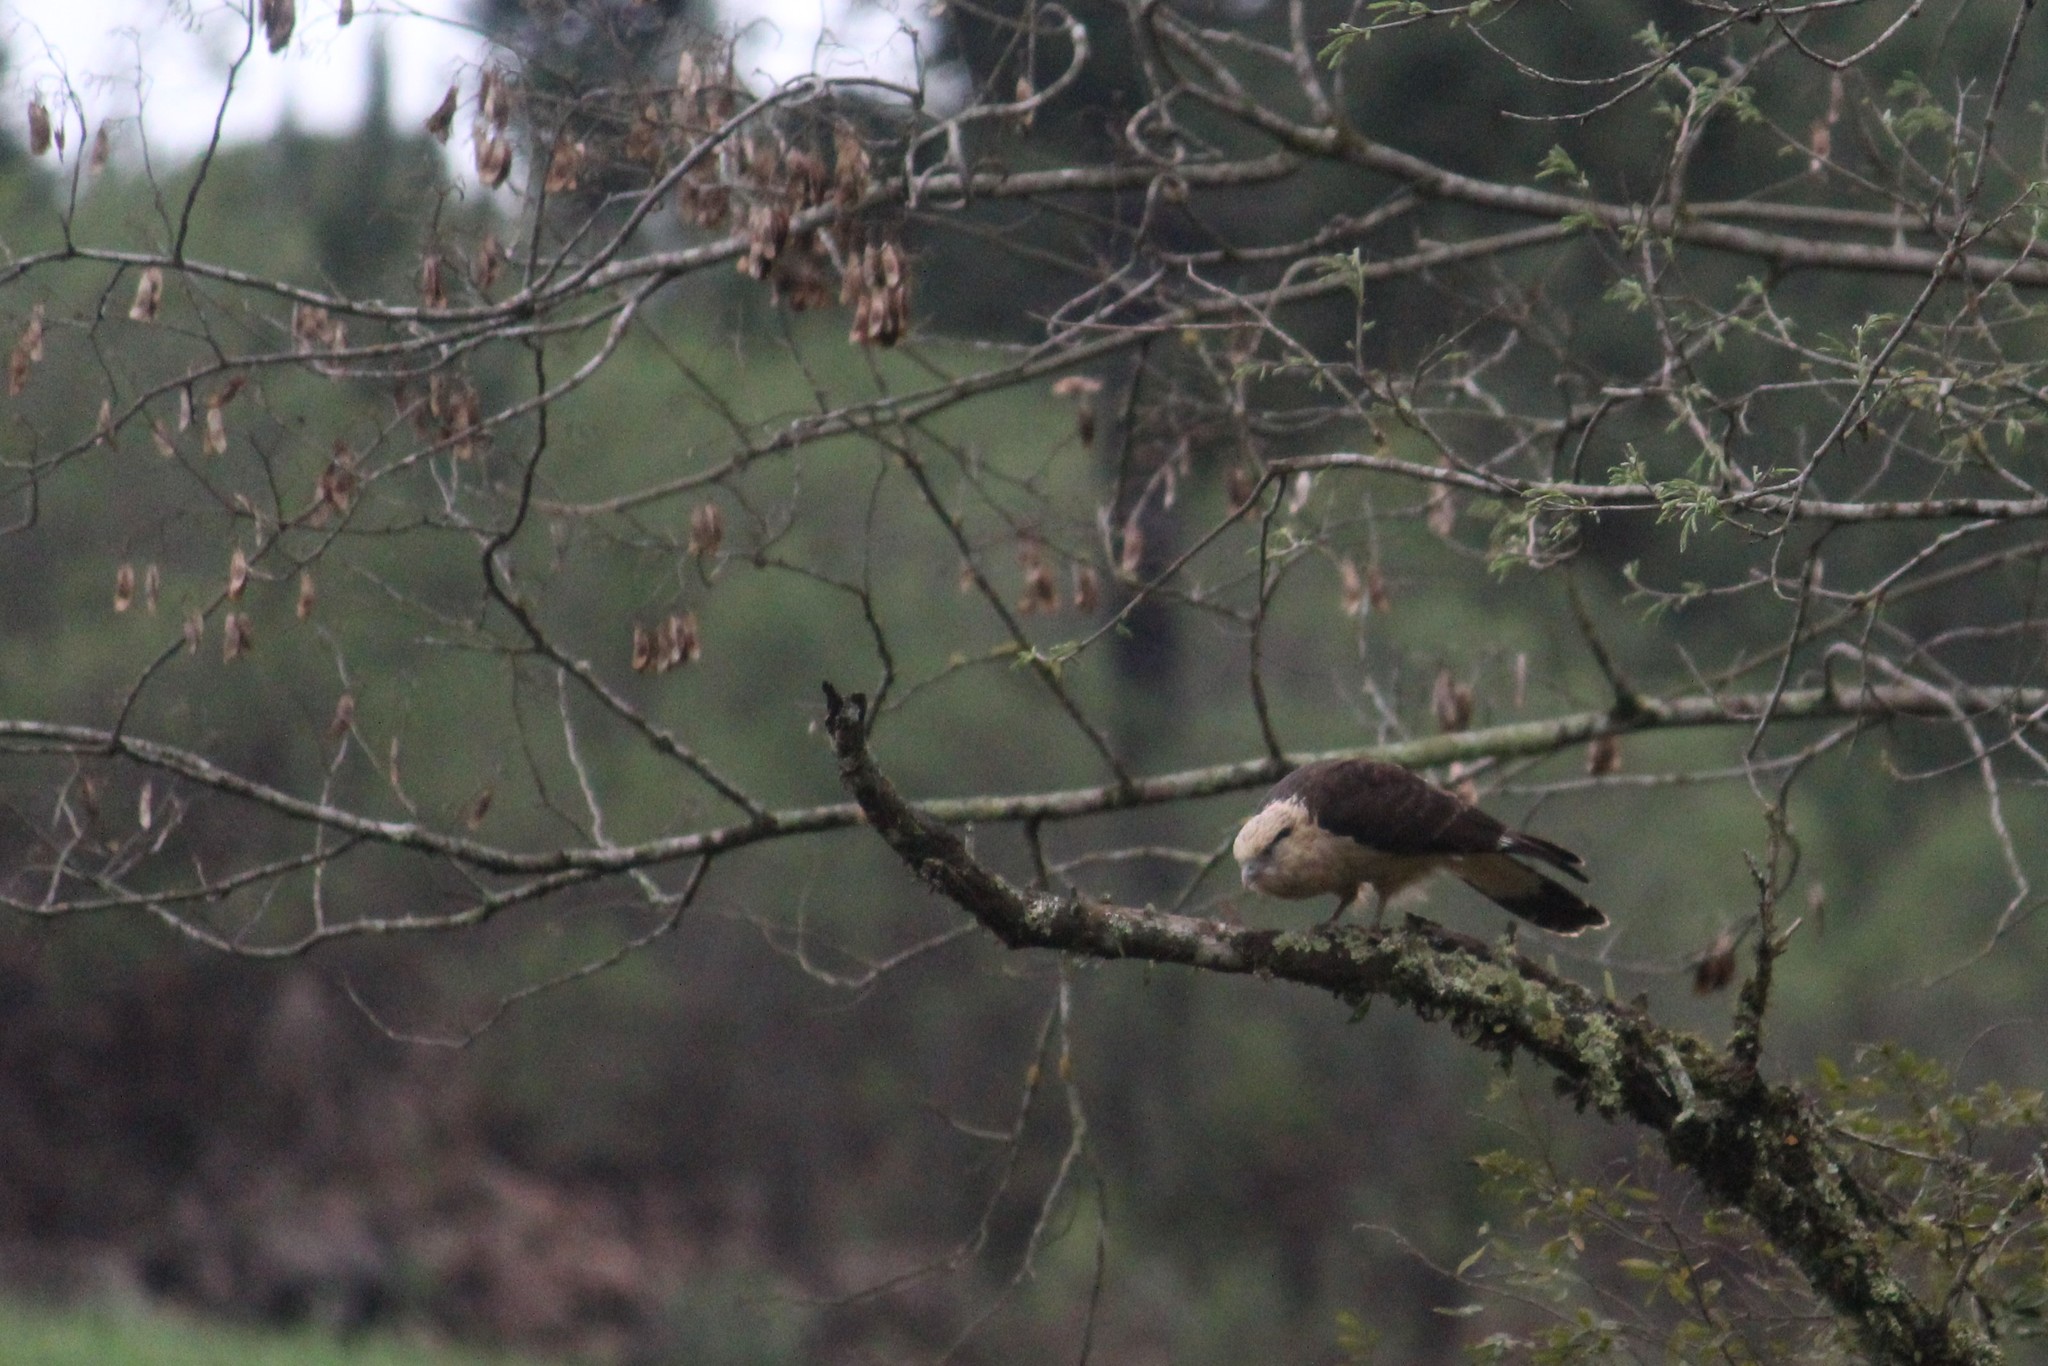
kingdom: Animalia
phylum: Chordata
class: Aves
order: Falconiformes
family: Falconidae
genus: Daptrius
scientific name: Daptrius
